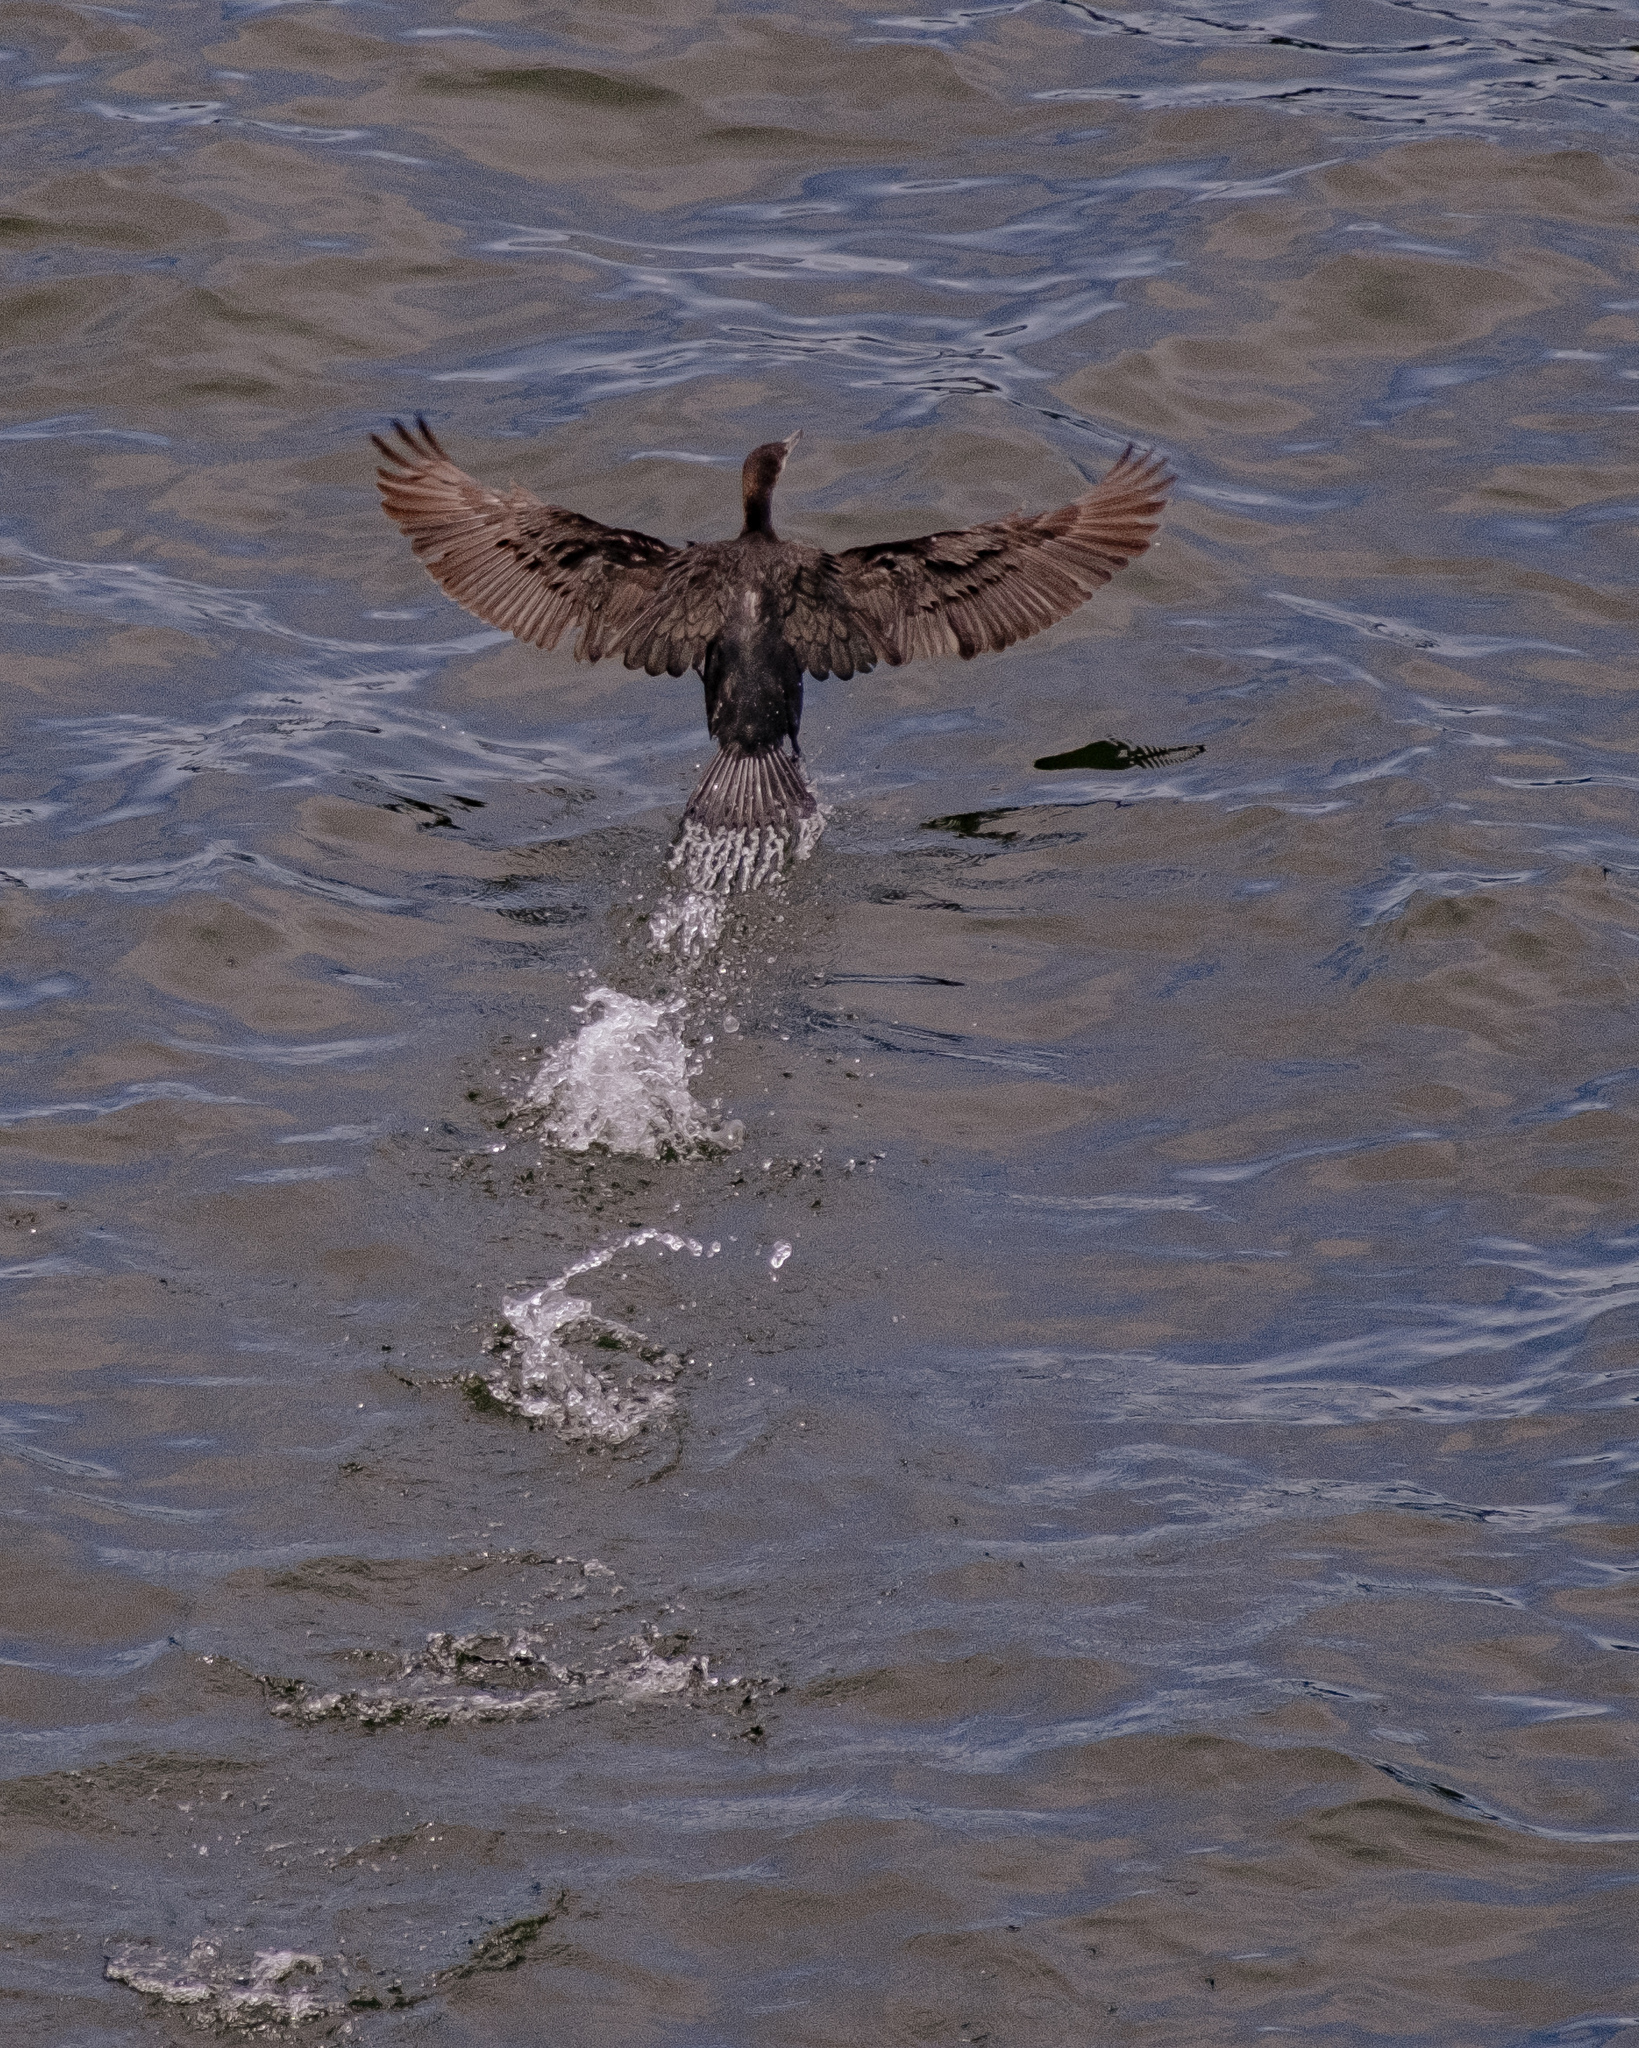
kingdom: Animalia
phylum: Chordata
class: Aves
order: Suliformes
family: Phalacrocoracidae
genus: Phalacrocorax
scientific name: Phalacrocorax carbo
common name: Great cormorant
